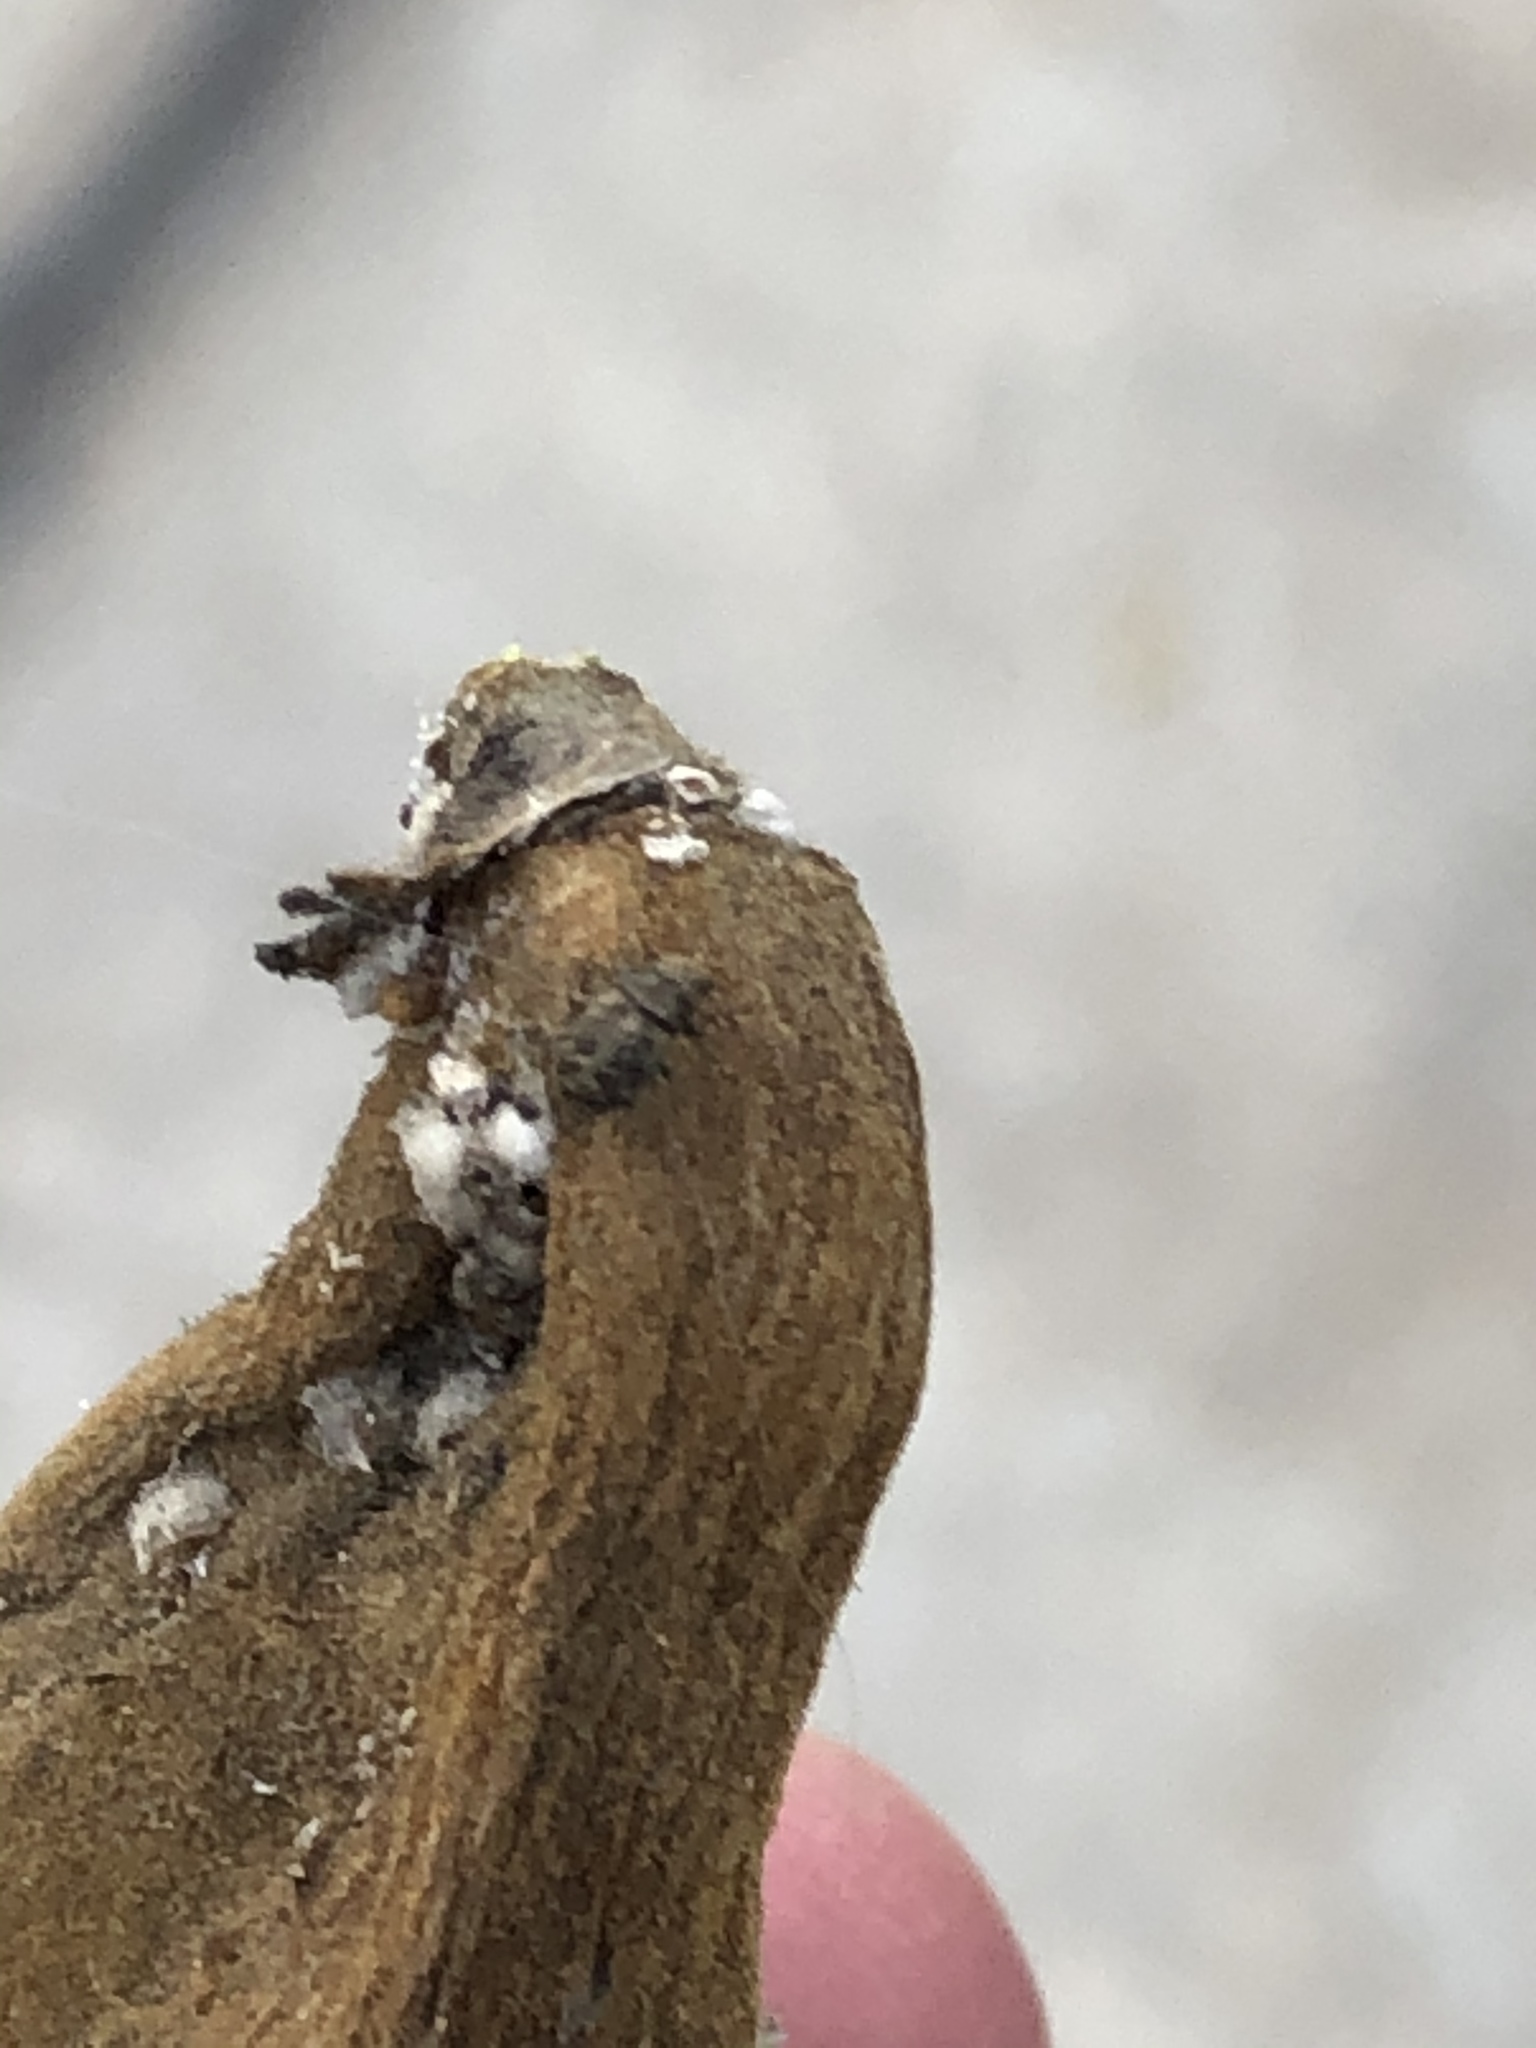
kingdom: Animalia
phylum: Arthropoda
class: Insecta
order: Coleoptera
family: Anthribidae
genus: Araecerus
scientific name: Araecerus fasciculatus
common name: Coffee bean weevil
